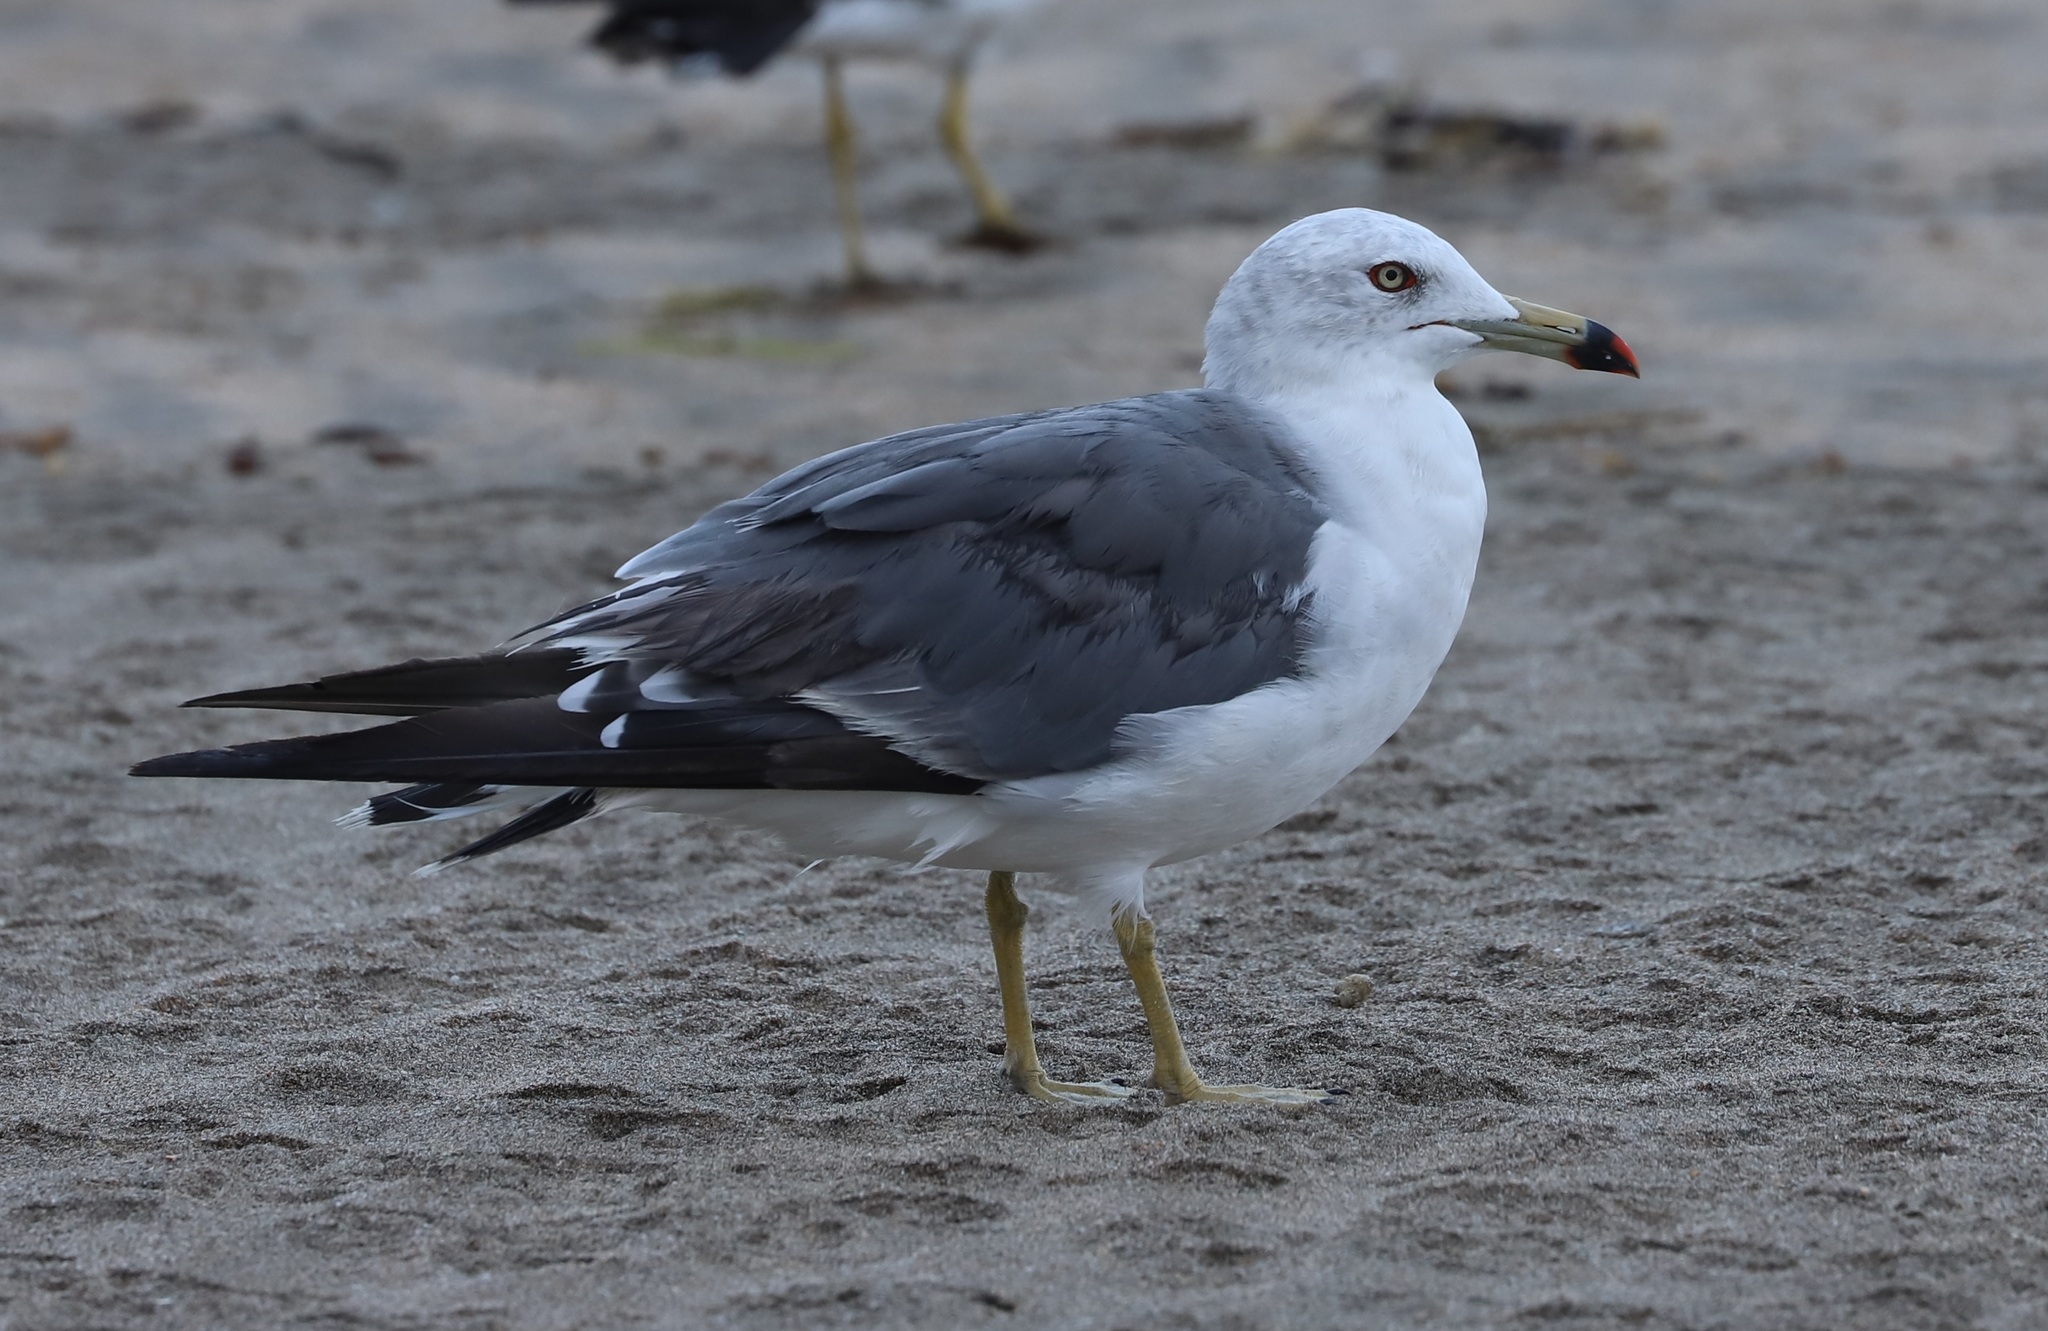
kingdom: Animalia
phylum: Chordata
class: Aves
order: Charadriiformes
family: Laridae
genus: Larus
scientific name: Larus crassirostris
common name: Black-tailed gull
